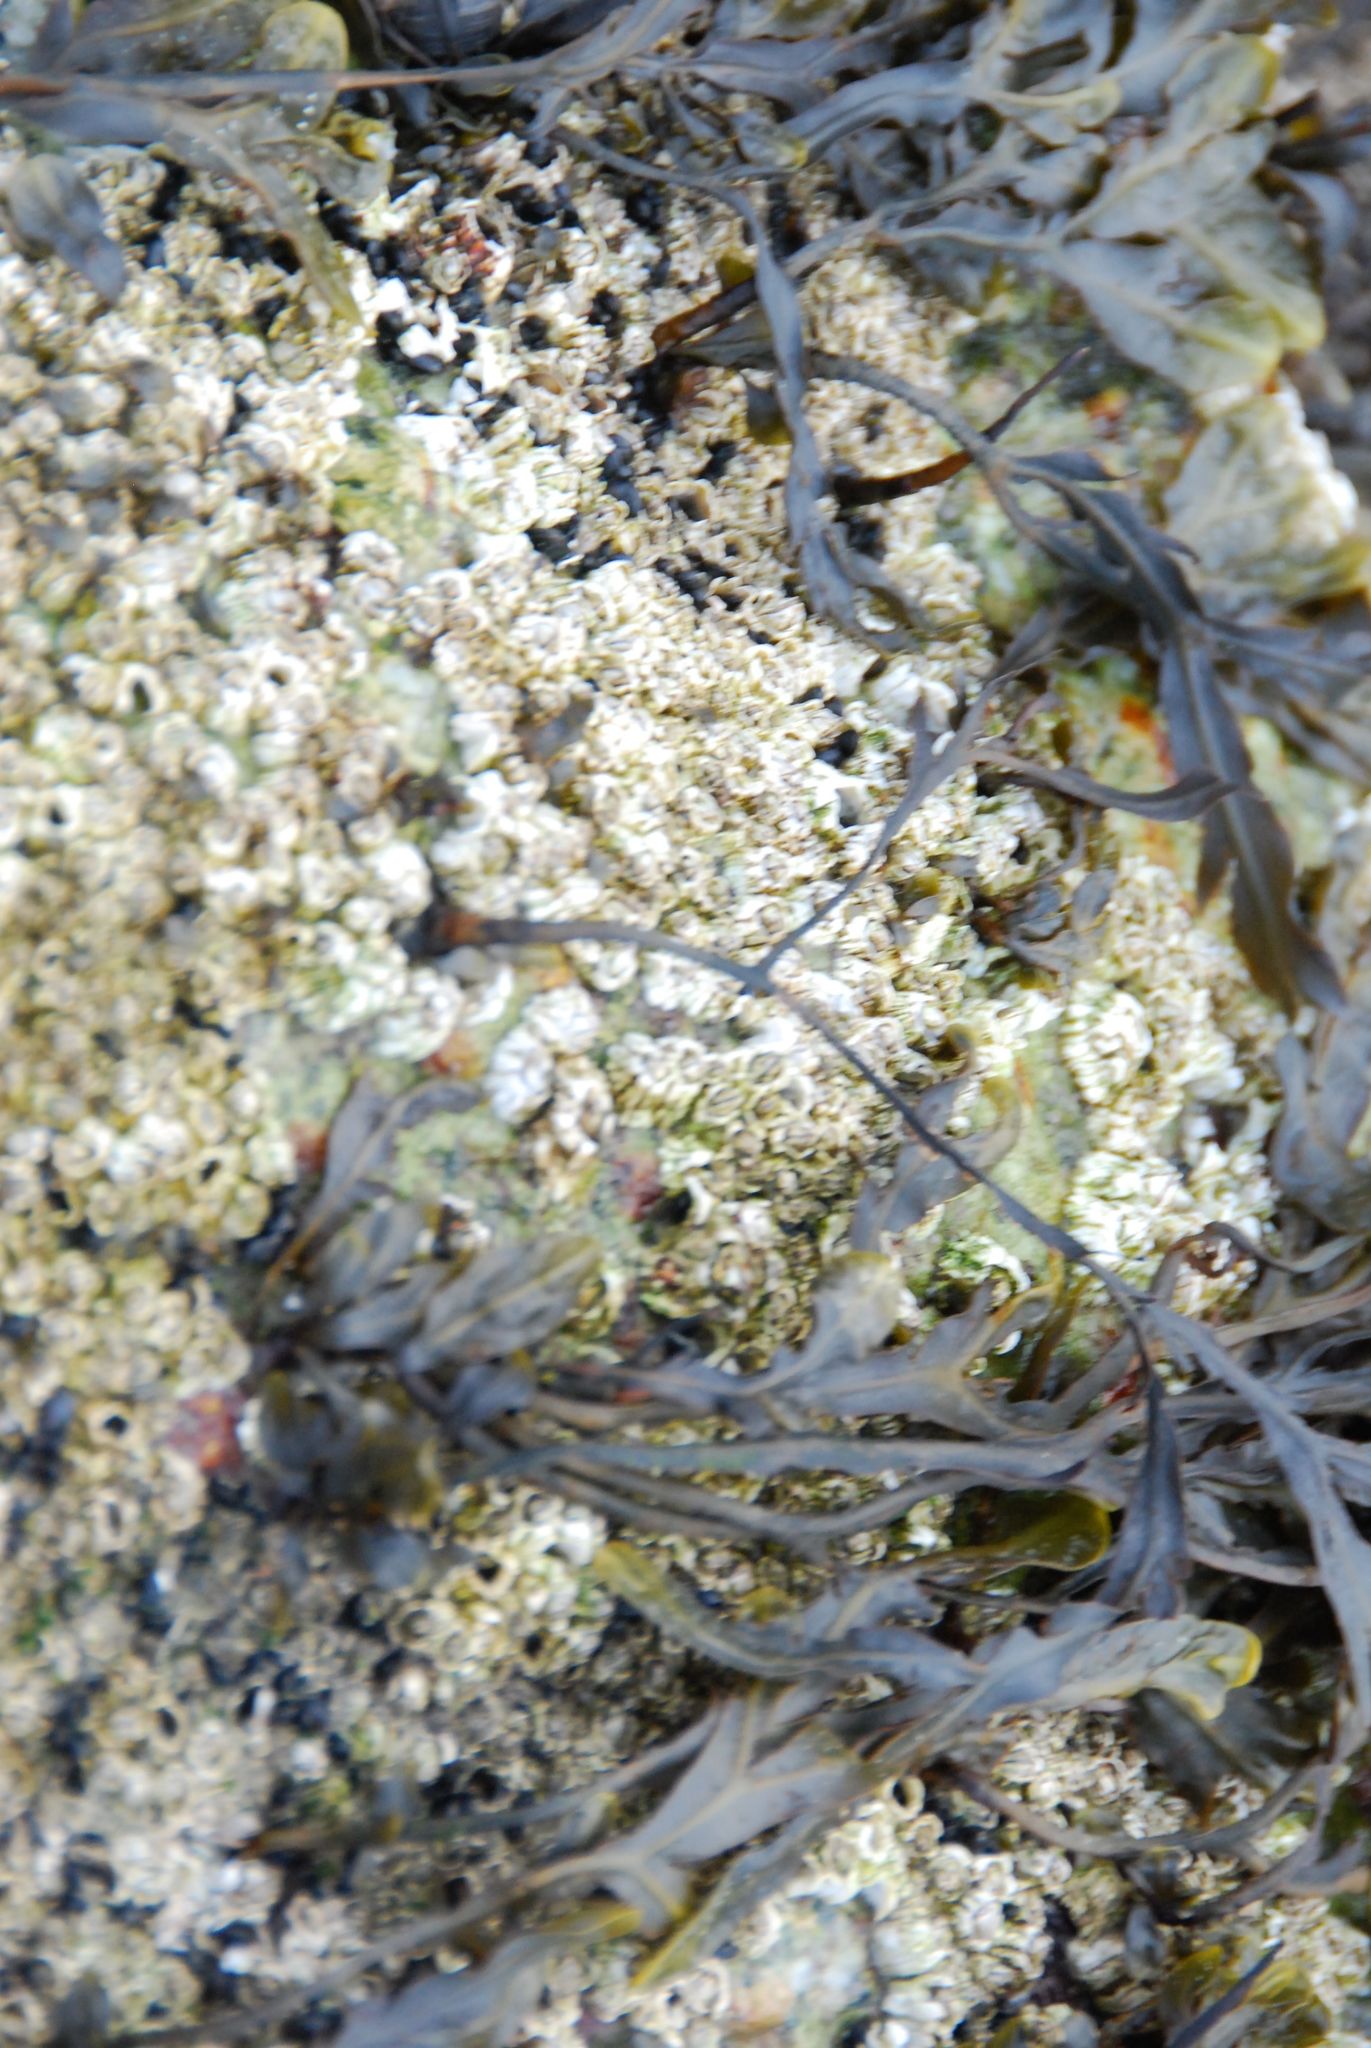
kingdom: Animalia
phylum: Arthropoda
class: Maxillopoda
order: Sessilia
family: Archaeobalanidae
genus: Semibalanus
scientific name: Semibalanus balanoides
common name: Acorn barnacle
